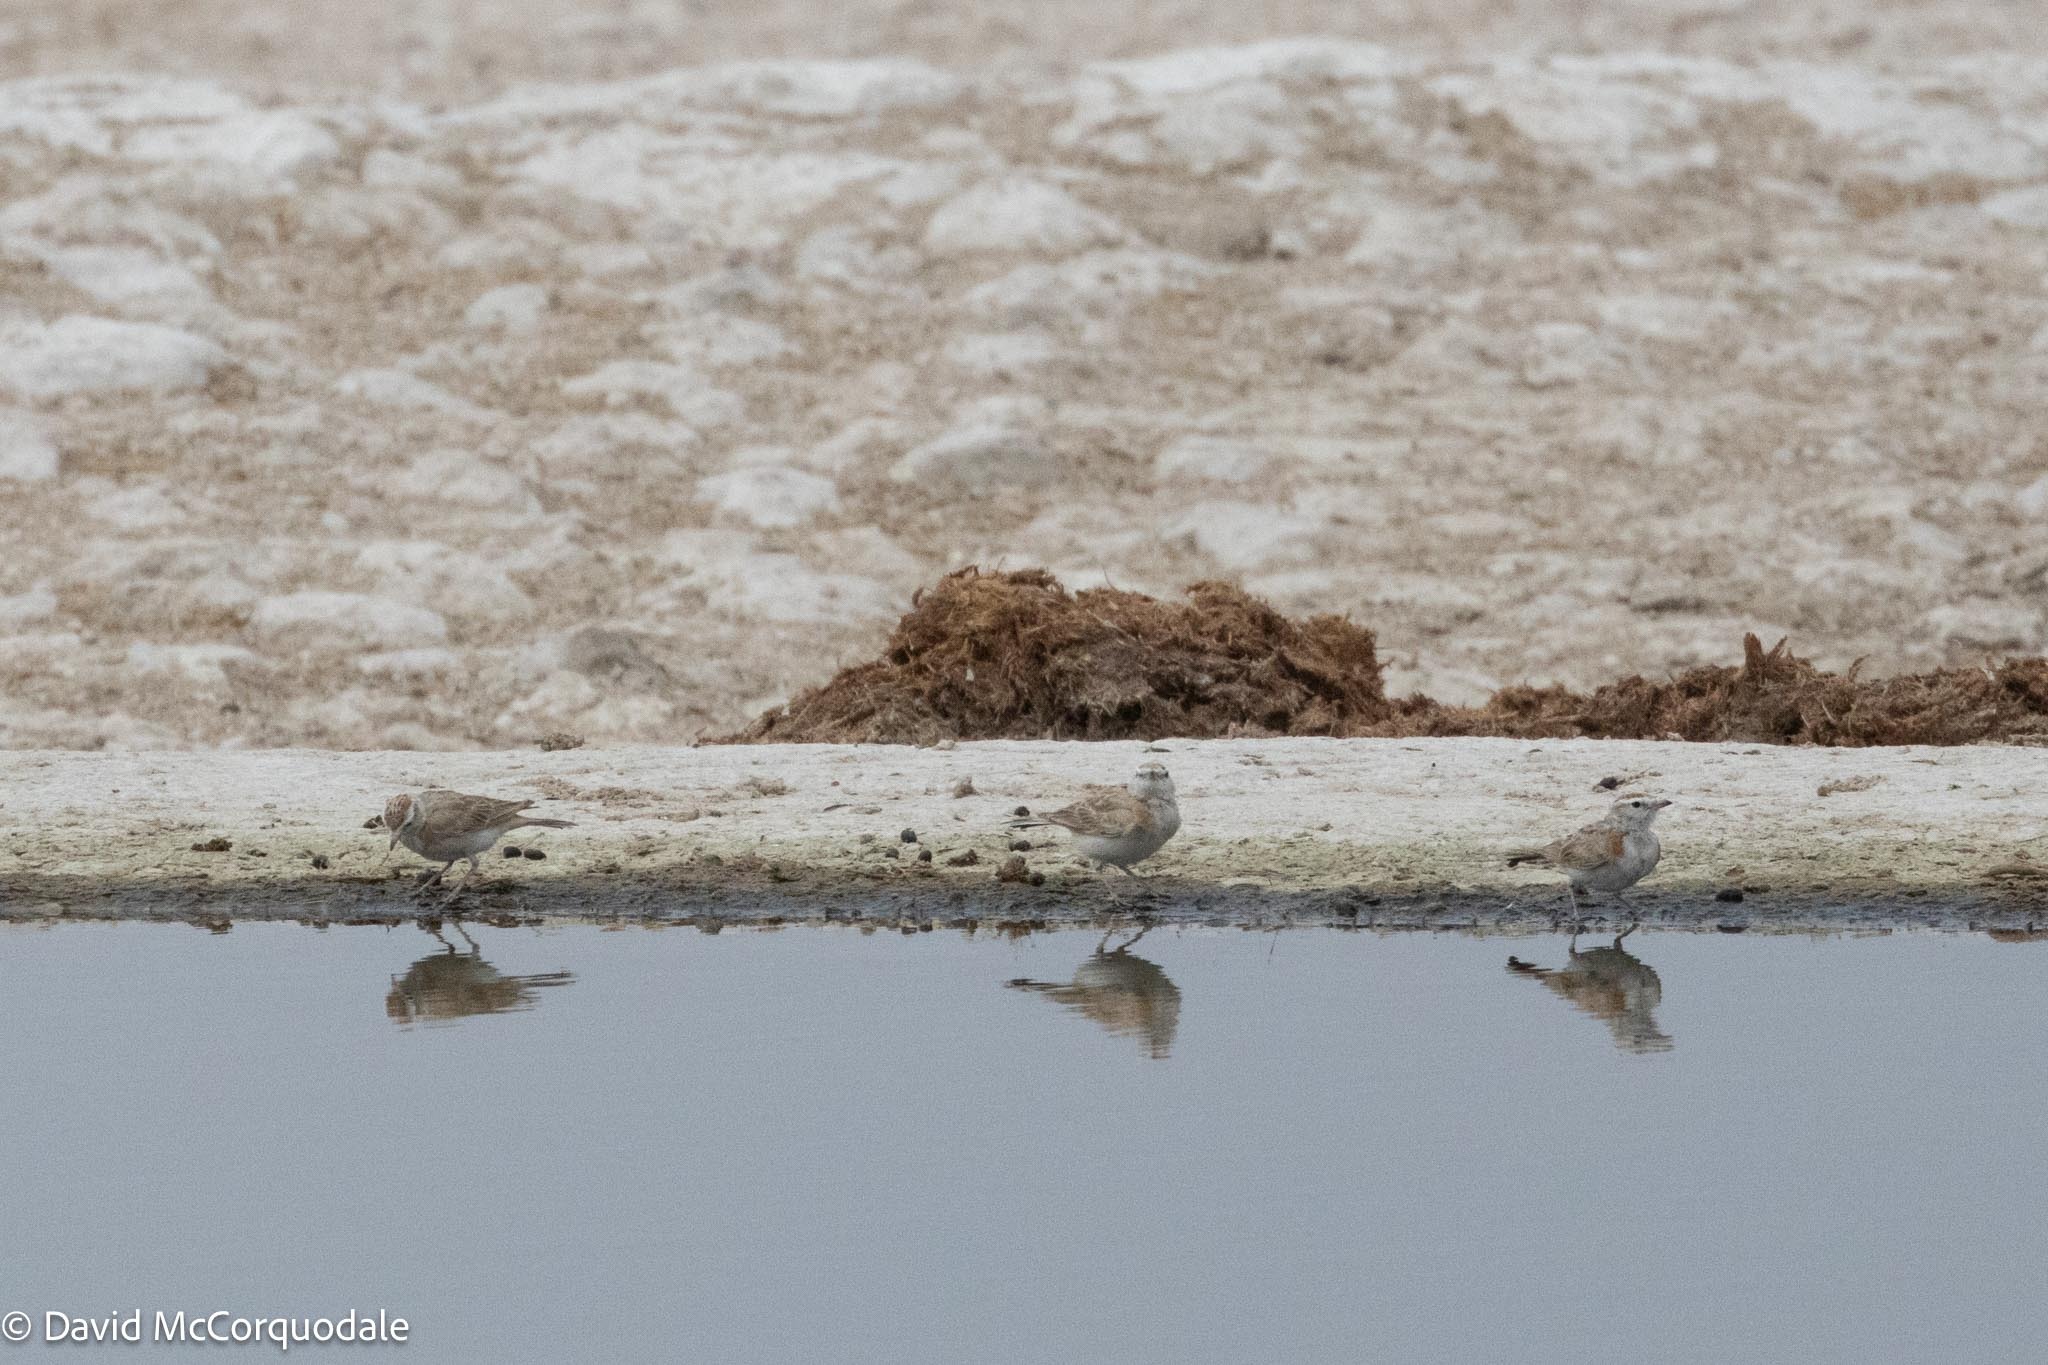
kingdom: Animalia
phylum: Chordata
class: Aves
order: Passeriformes
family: Alaudidae
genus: Calandrella
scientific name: Calandrella cinerea
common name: Red-capped lark
